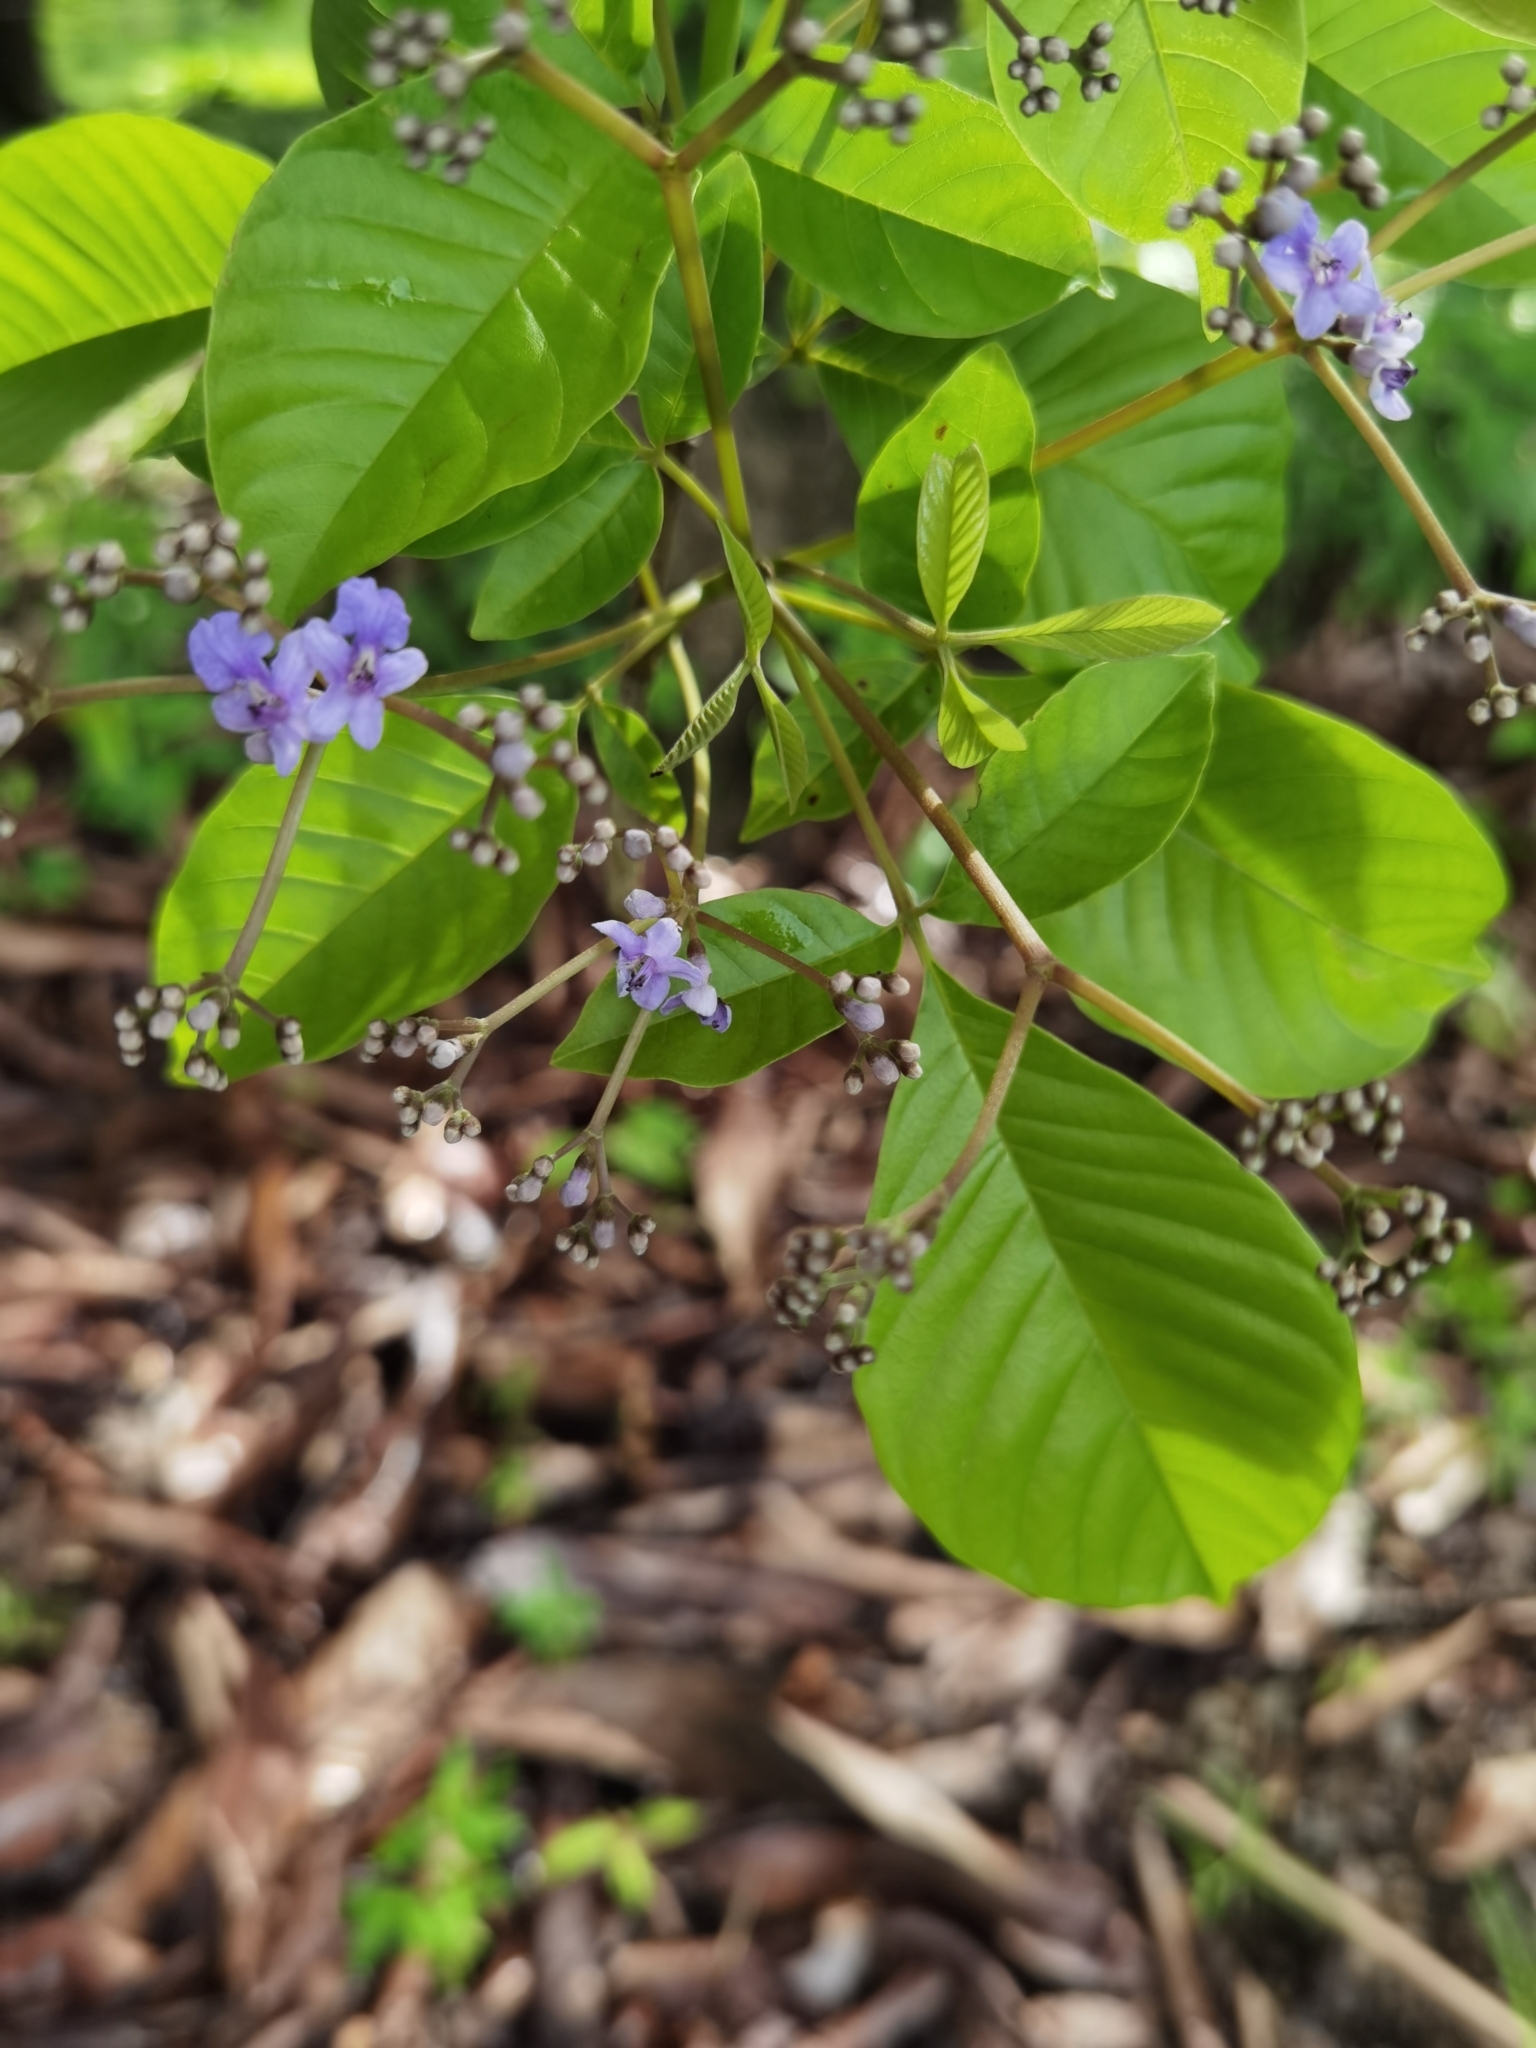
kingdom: Plantae
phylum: Tracheophyta
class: Magnoliopsida
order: Lamiales
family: Lamiaceae
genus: Vitex
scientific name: Vitex cooperi
